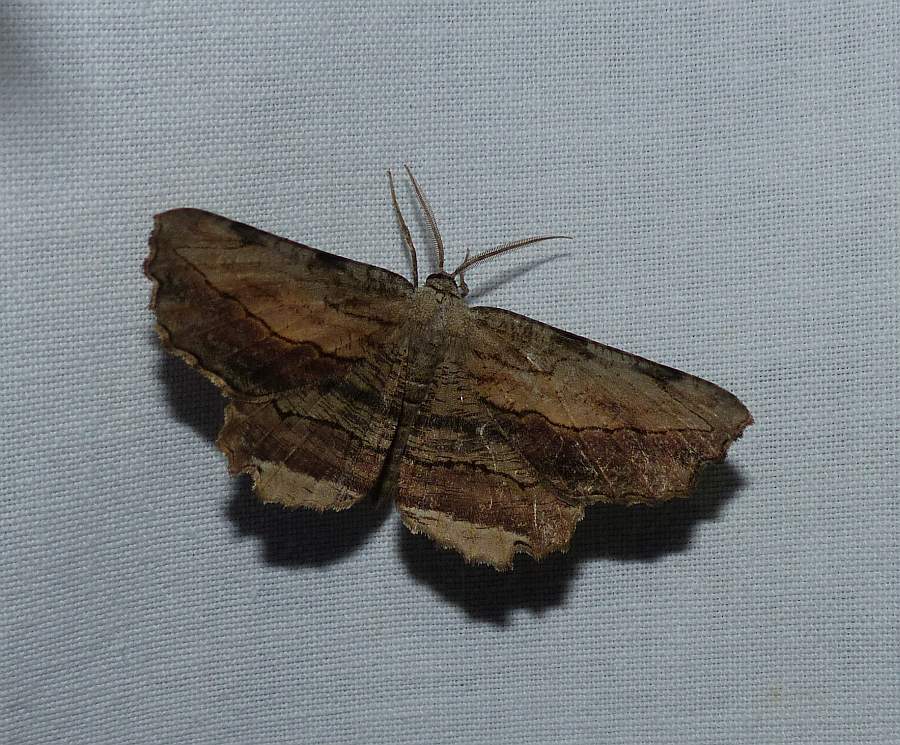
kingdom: Animalia
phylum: Arthropoda
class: Insecta
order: Lepidoptera
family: Geometridae
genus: Lytrosis
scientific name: Lytrosis unitaria
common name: Common lytrosis
